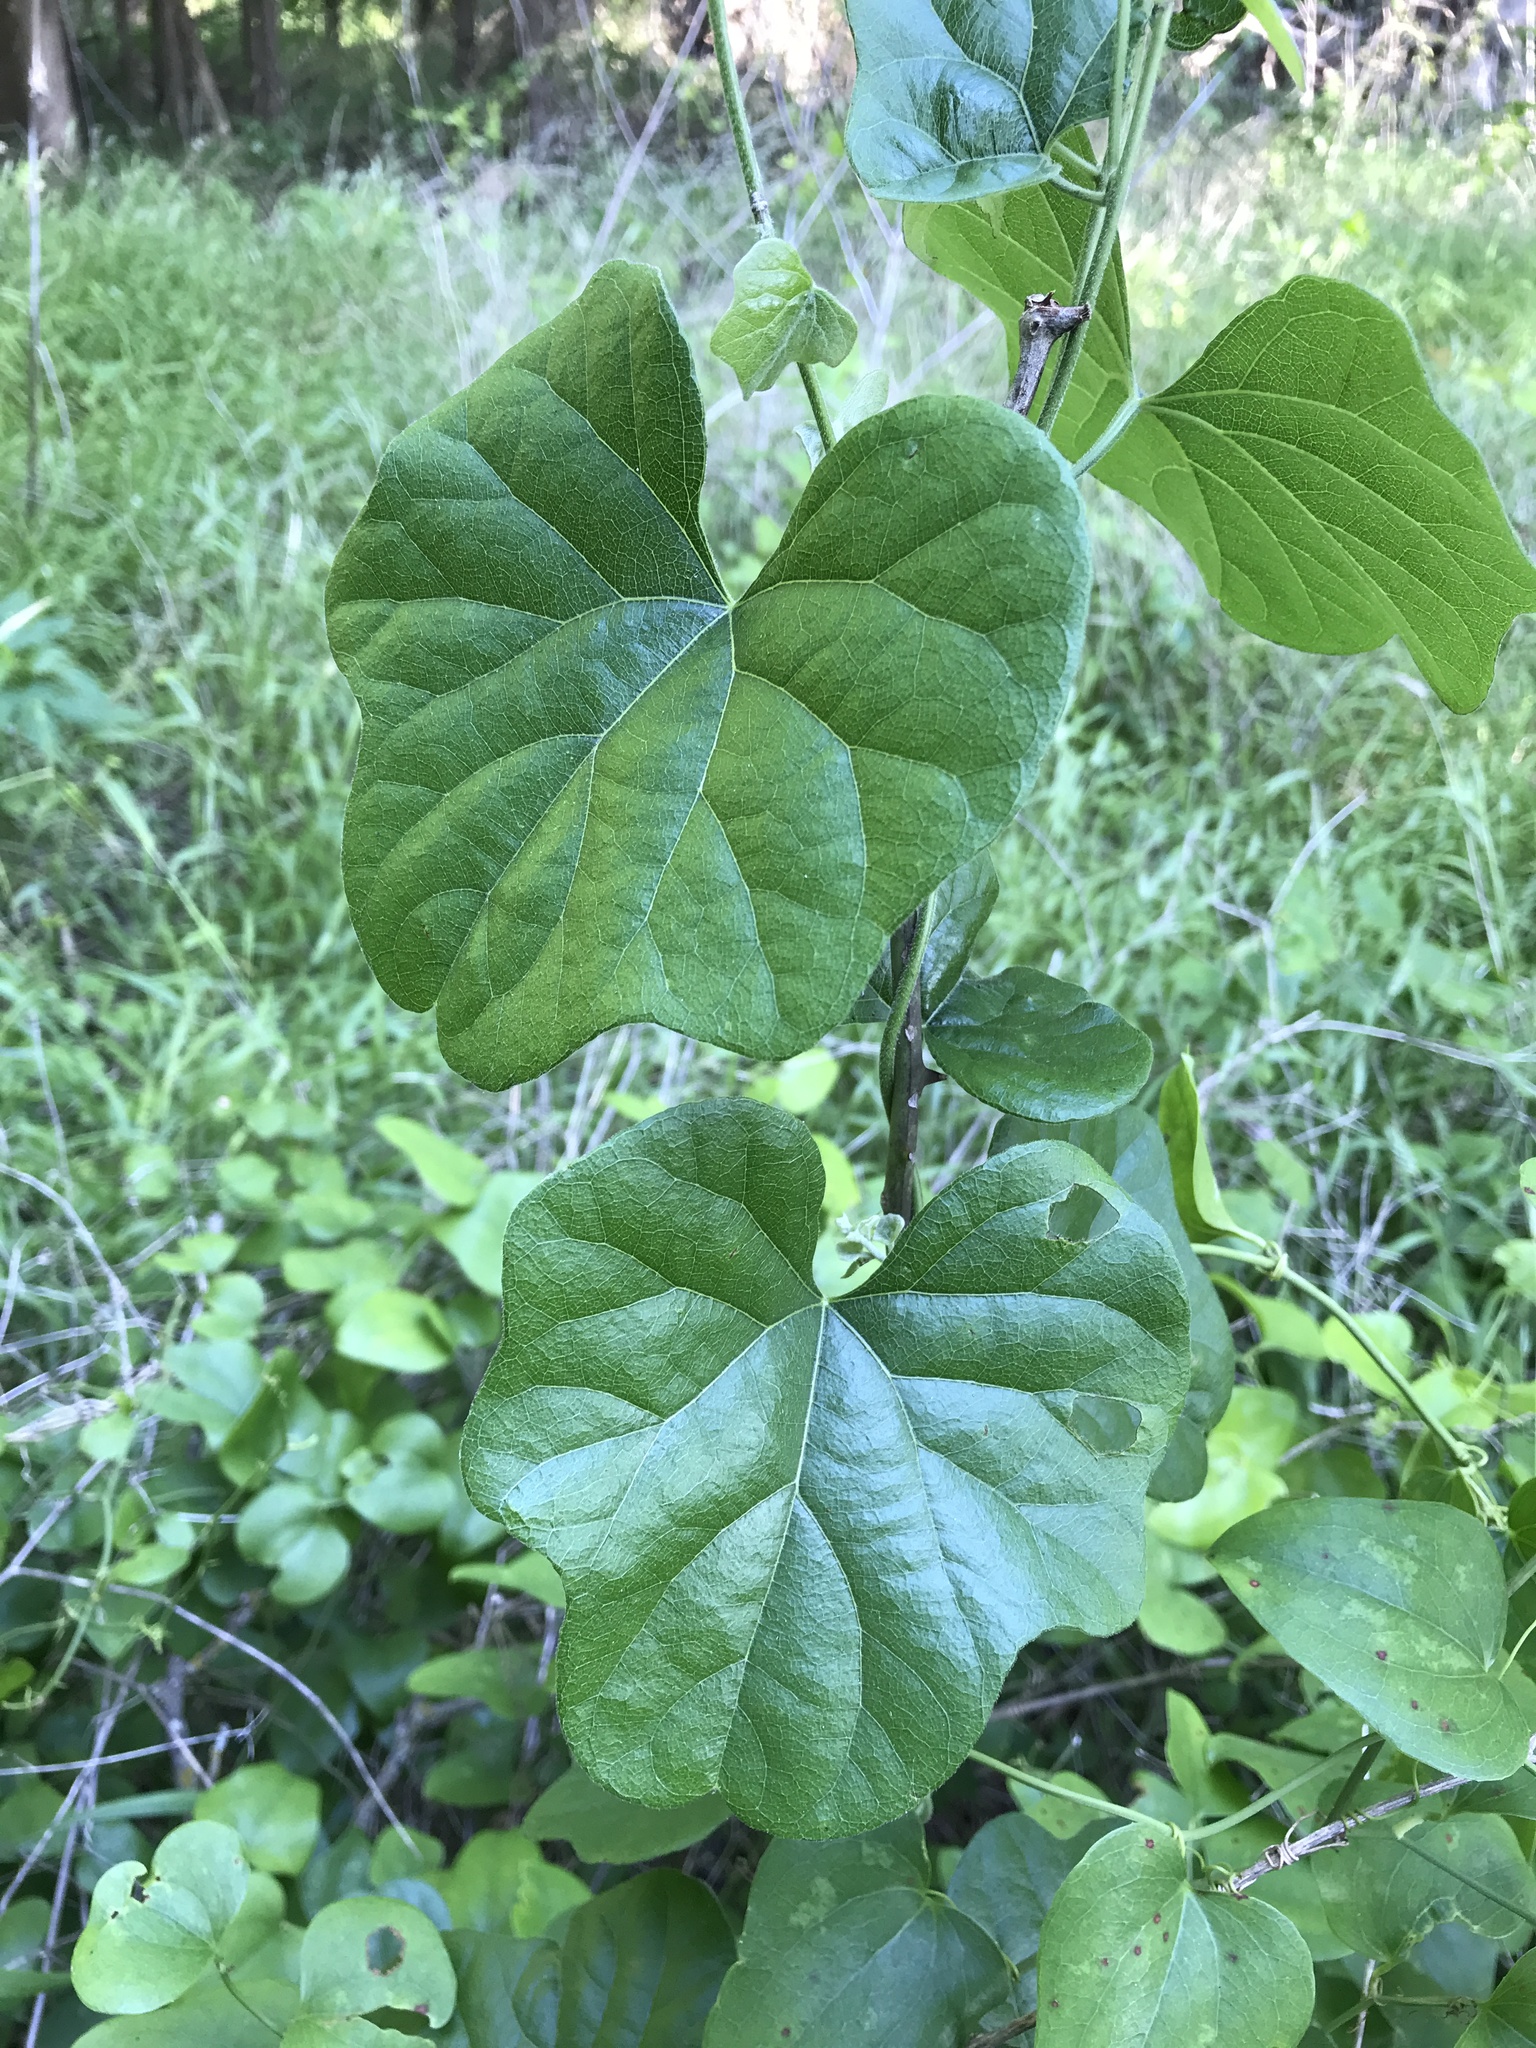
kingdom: Plantae
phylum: Tracheophyta
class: Magnoliopsida
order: Ranunculales
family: Menispermaceae
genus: Cocculus
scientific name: Cocculus carolinus
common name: Carolina moonseed
